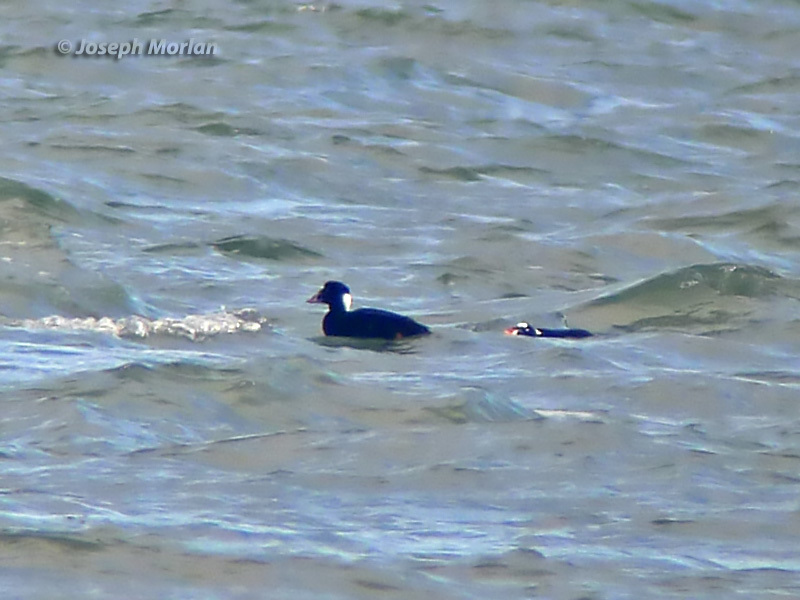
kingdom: Animalia
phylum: Chordata
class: Aves
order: Anseriformes
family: Anatidae
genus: Melanitta
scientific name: Melanitta perspicillata
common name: Surf scoter
